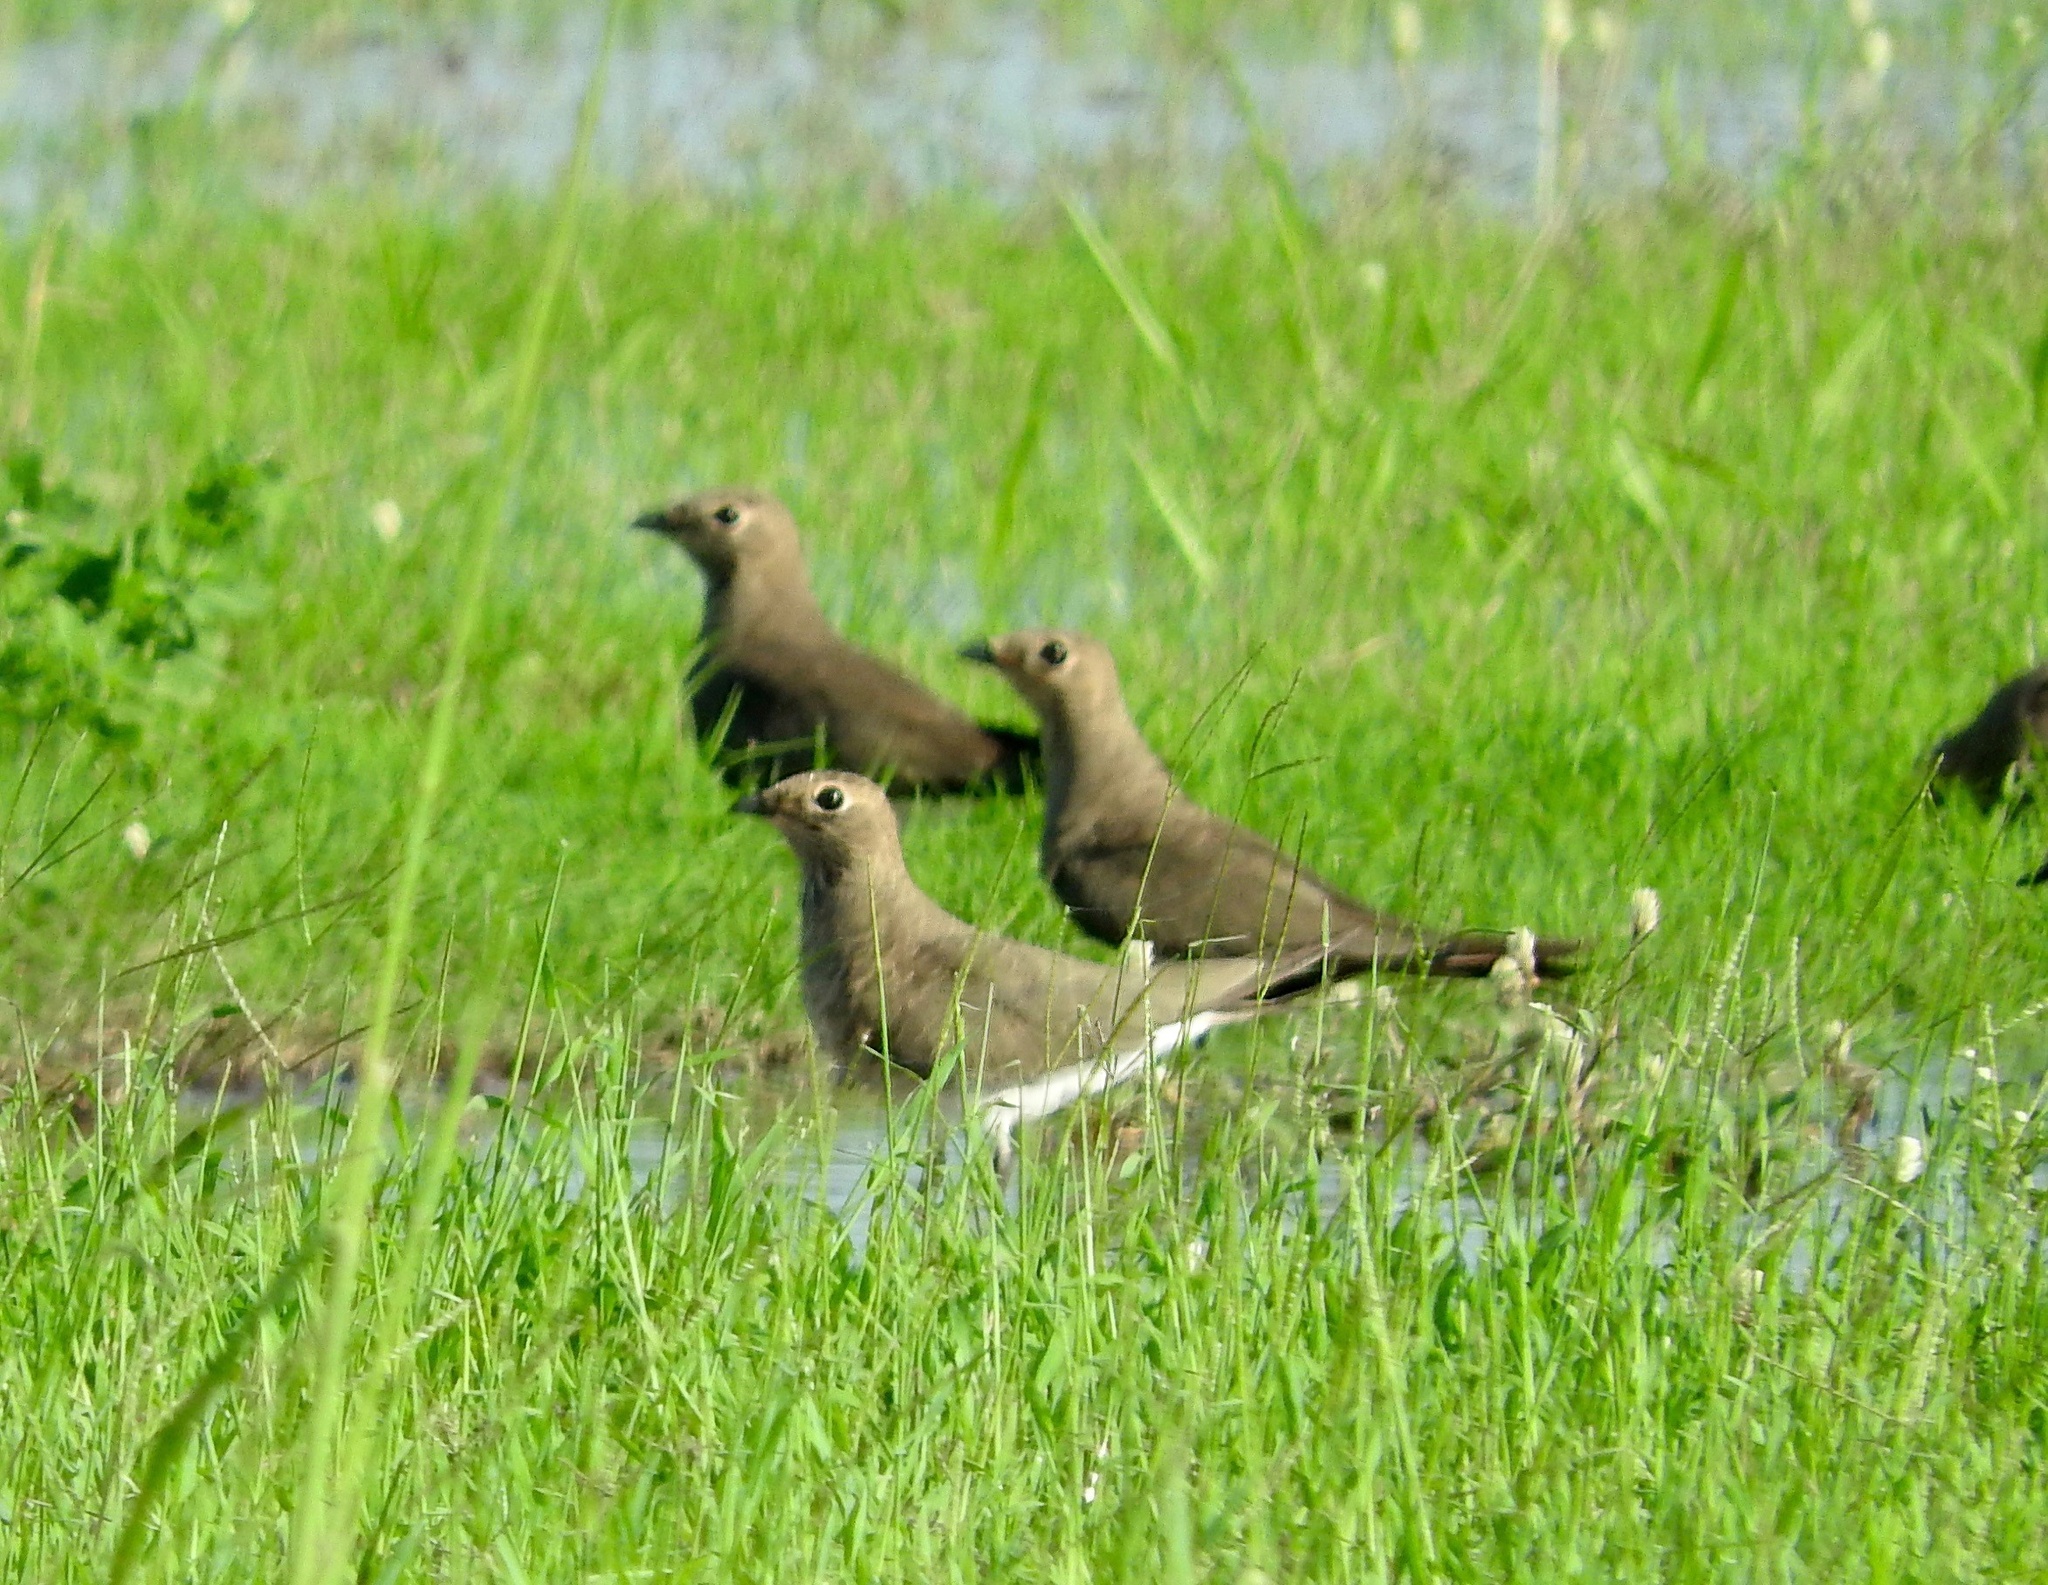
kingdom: Animalia
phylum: Chordata
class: Aves
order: Charadriiformes
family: Glareolidae
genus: Glareola
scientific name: Glareola pratincola
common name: Collared pratincole
